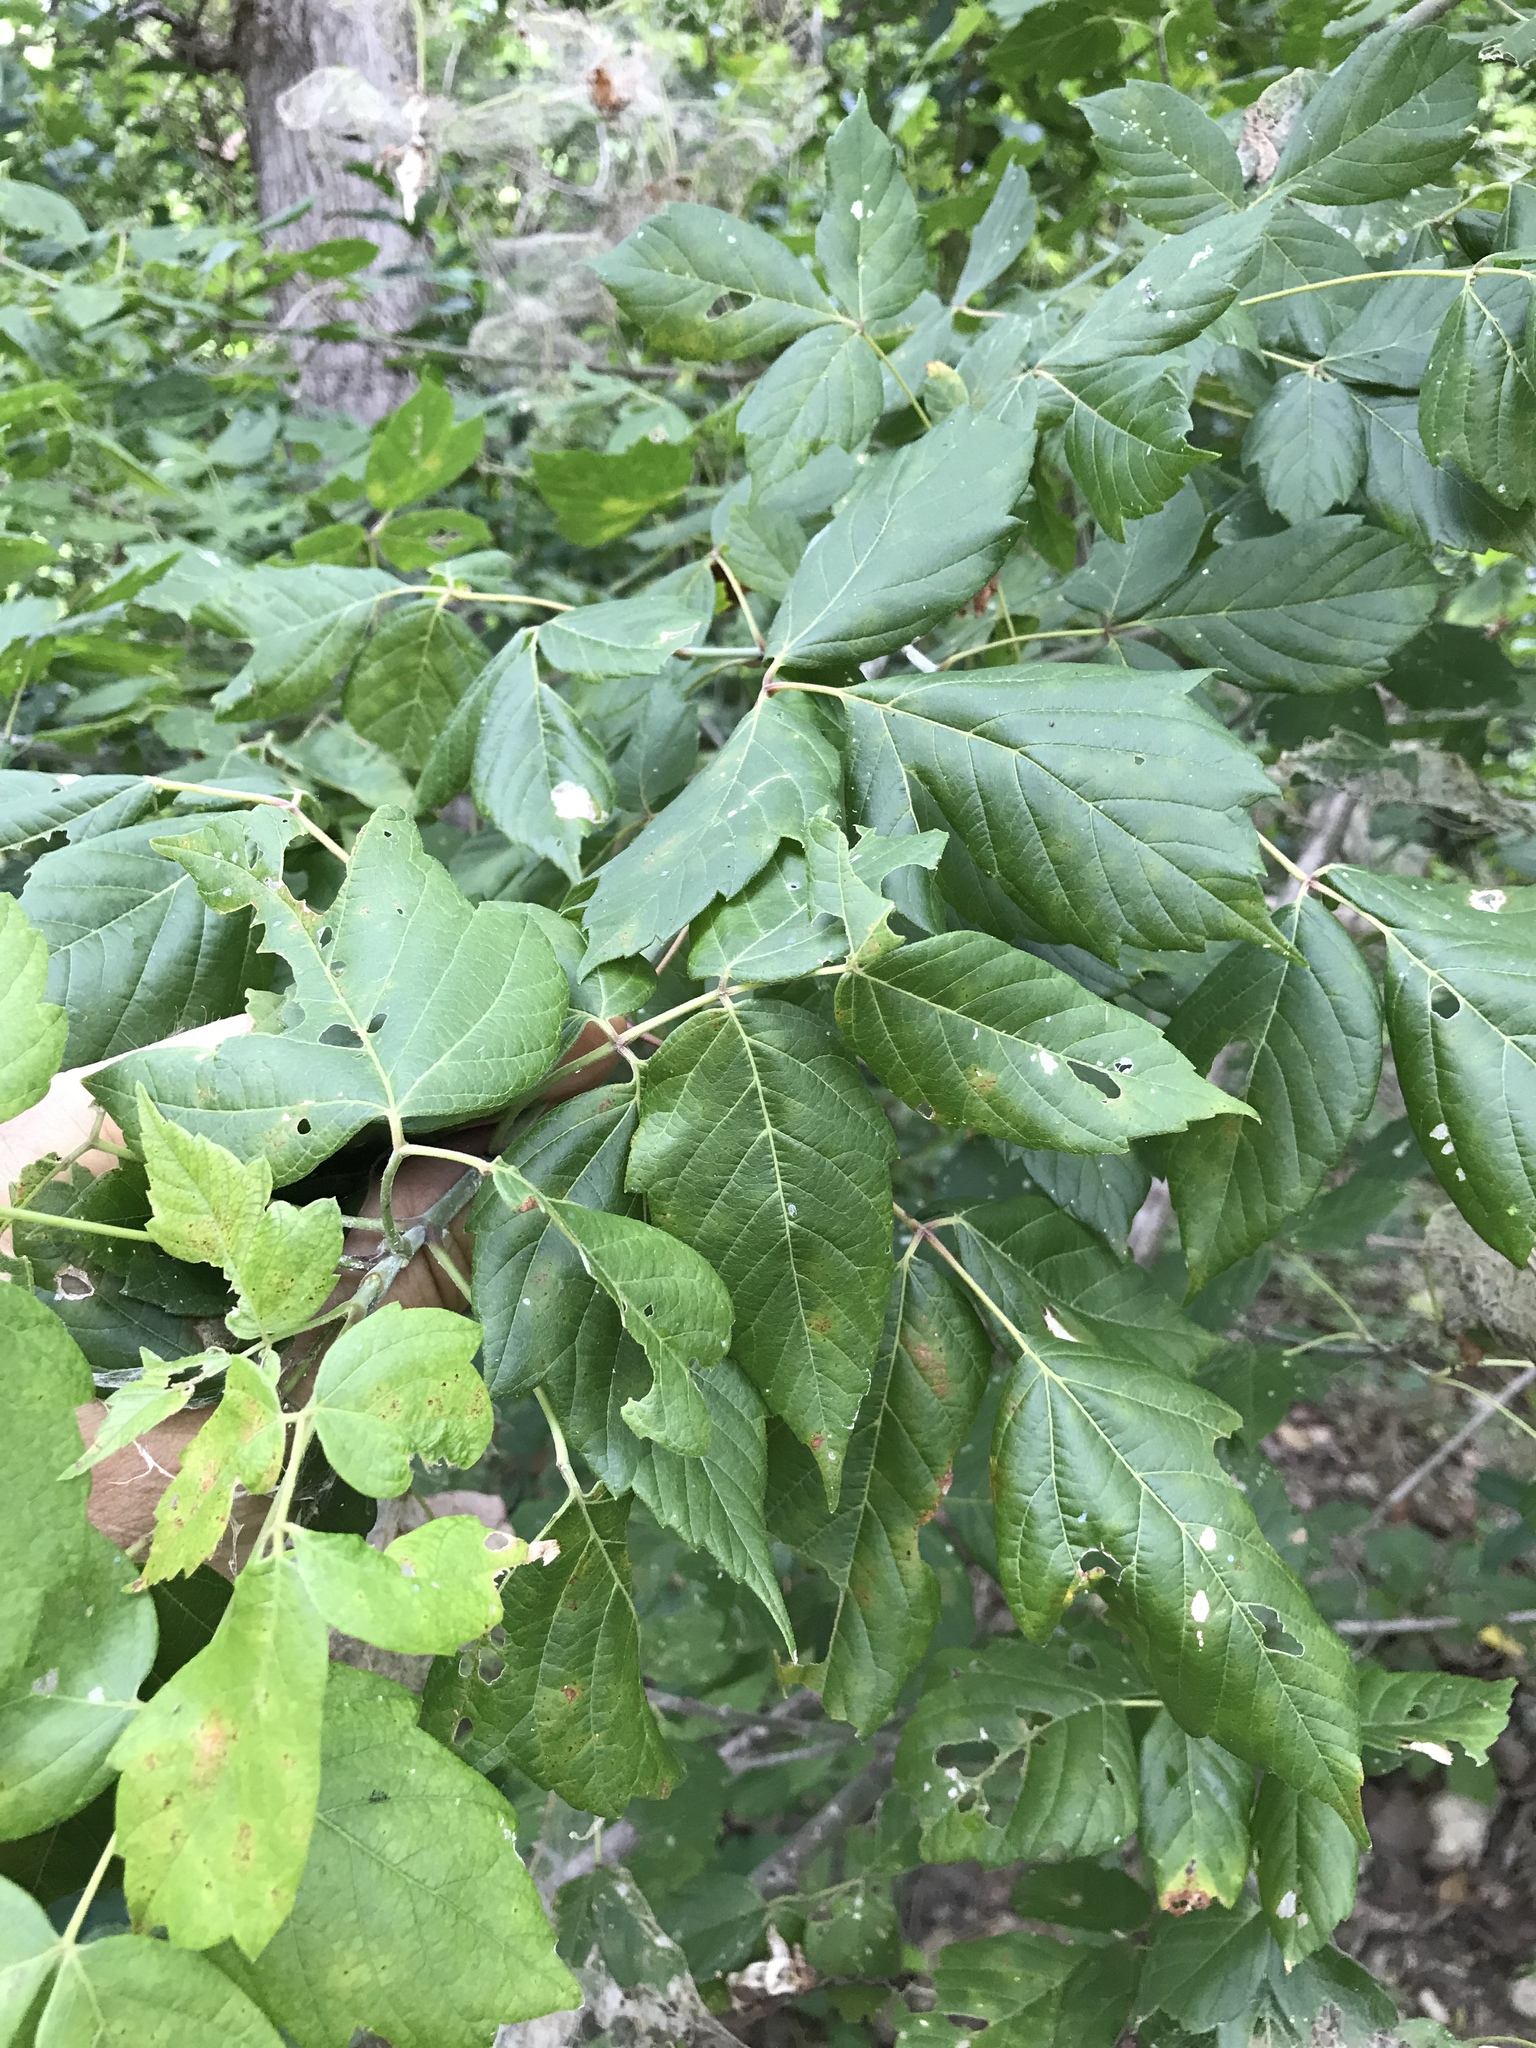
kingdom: Plantae
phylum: Tracheophyta
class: Magnoliopsida
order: Sapindales
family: Sapindaceae
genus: Acer
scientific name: Acer negundo
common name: Ashleaf maple
